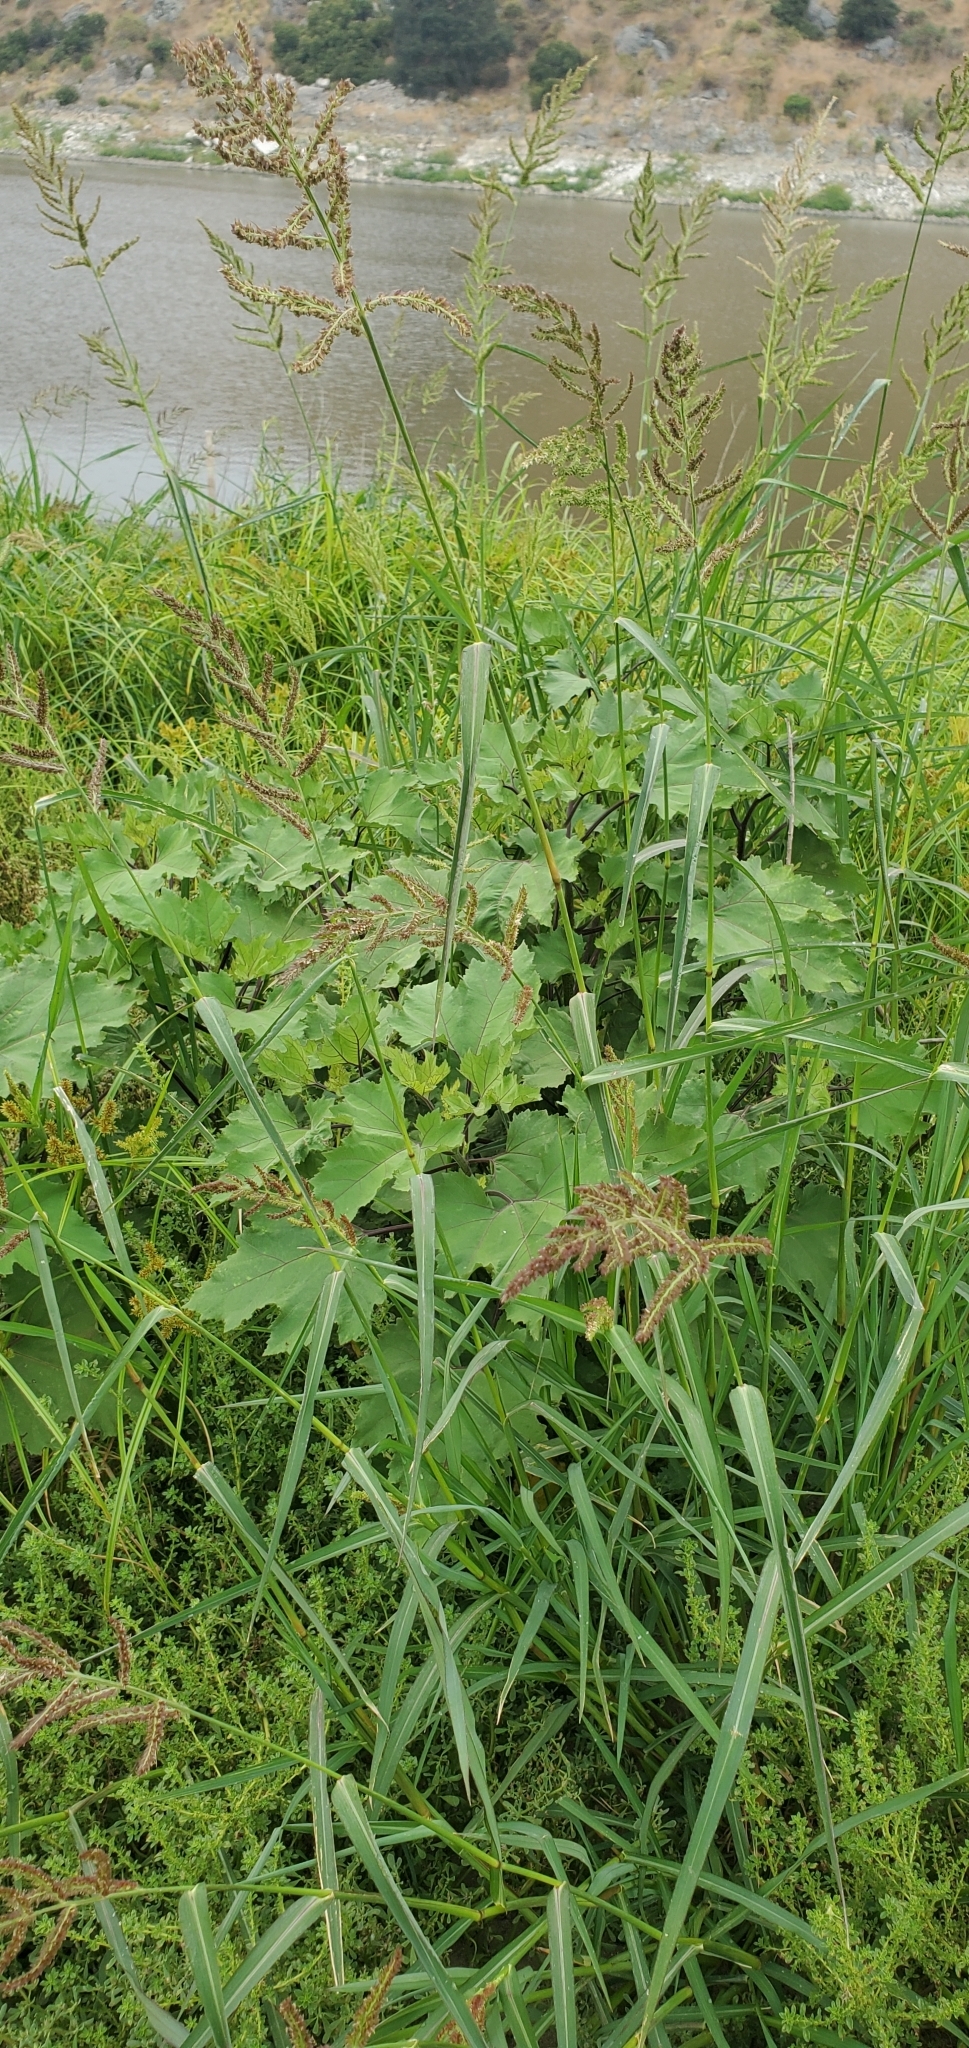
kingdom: Plantae
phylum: Tracheophyta
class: Liliopsida
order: Poales
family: Poaceae
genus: Echinochloa
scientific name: Echinochloa crus-galli
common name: Cockspur
